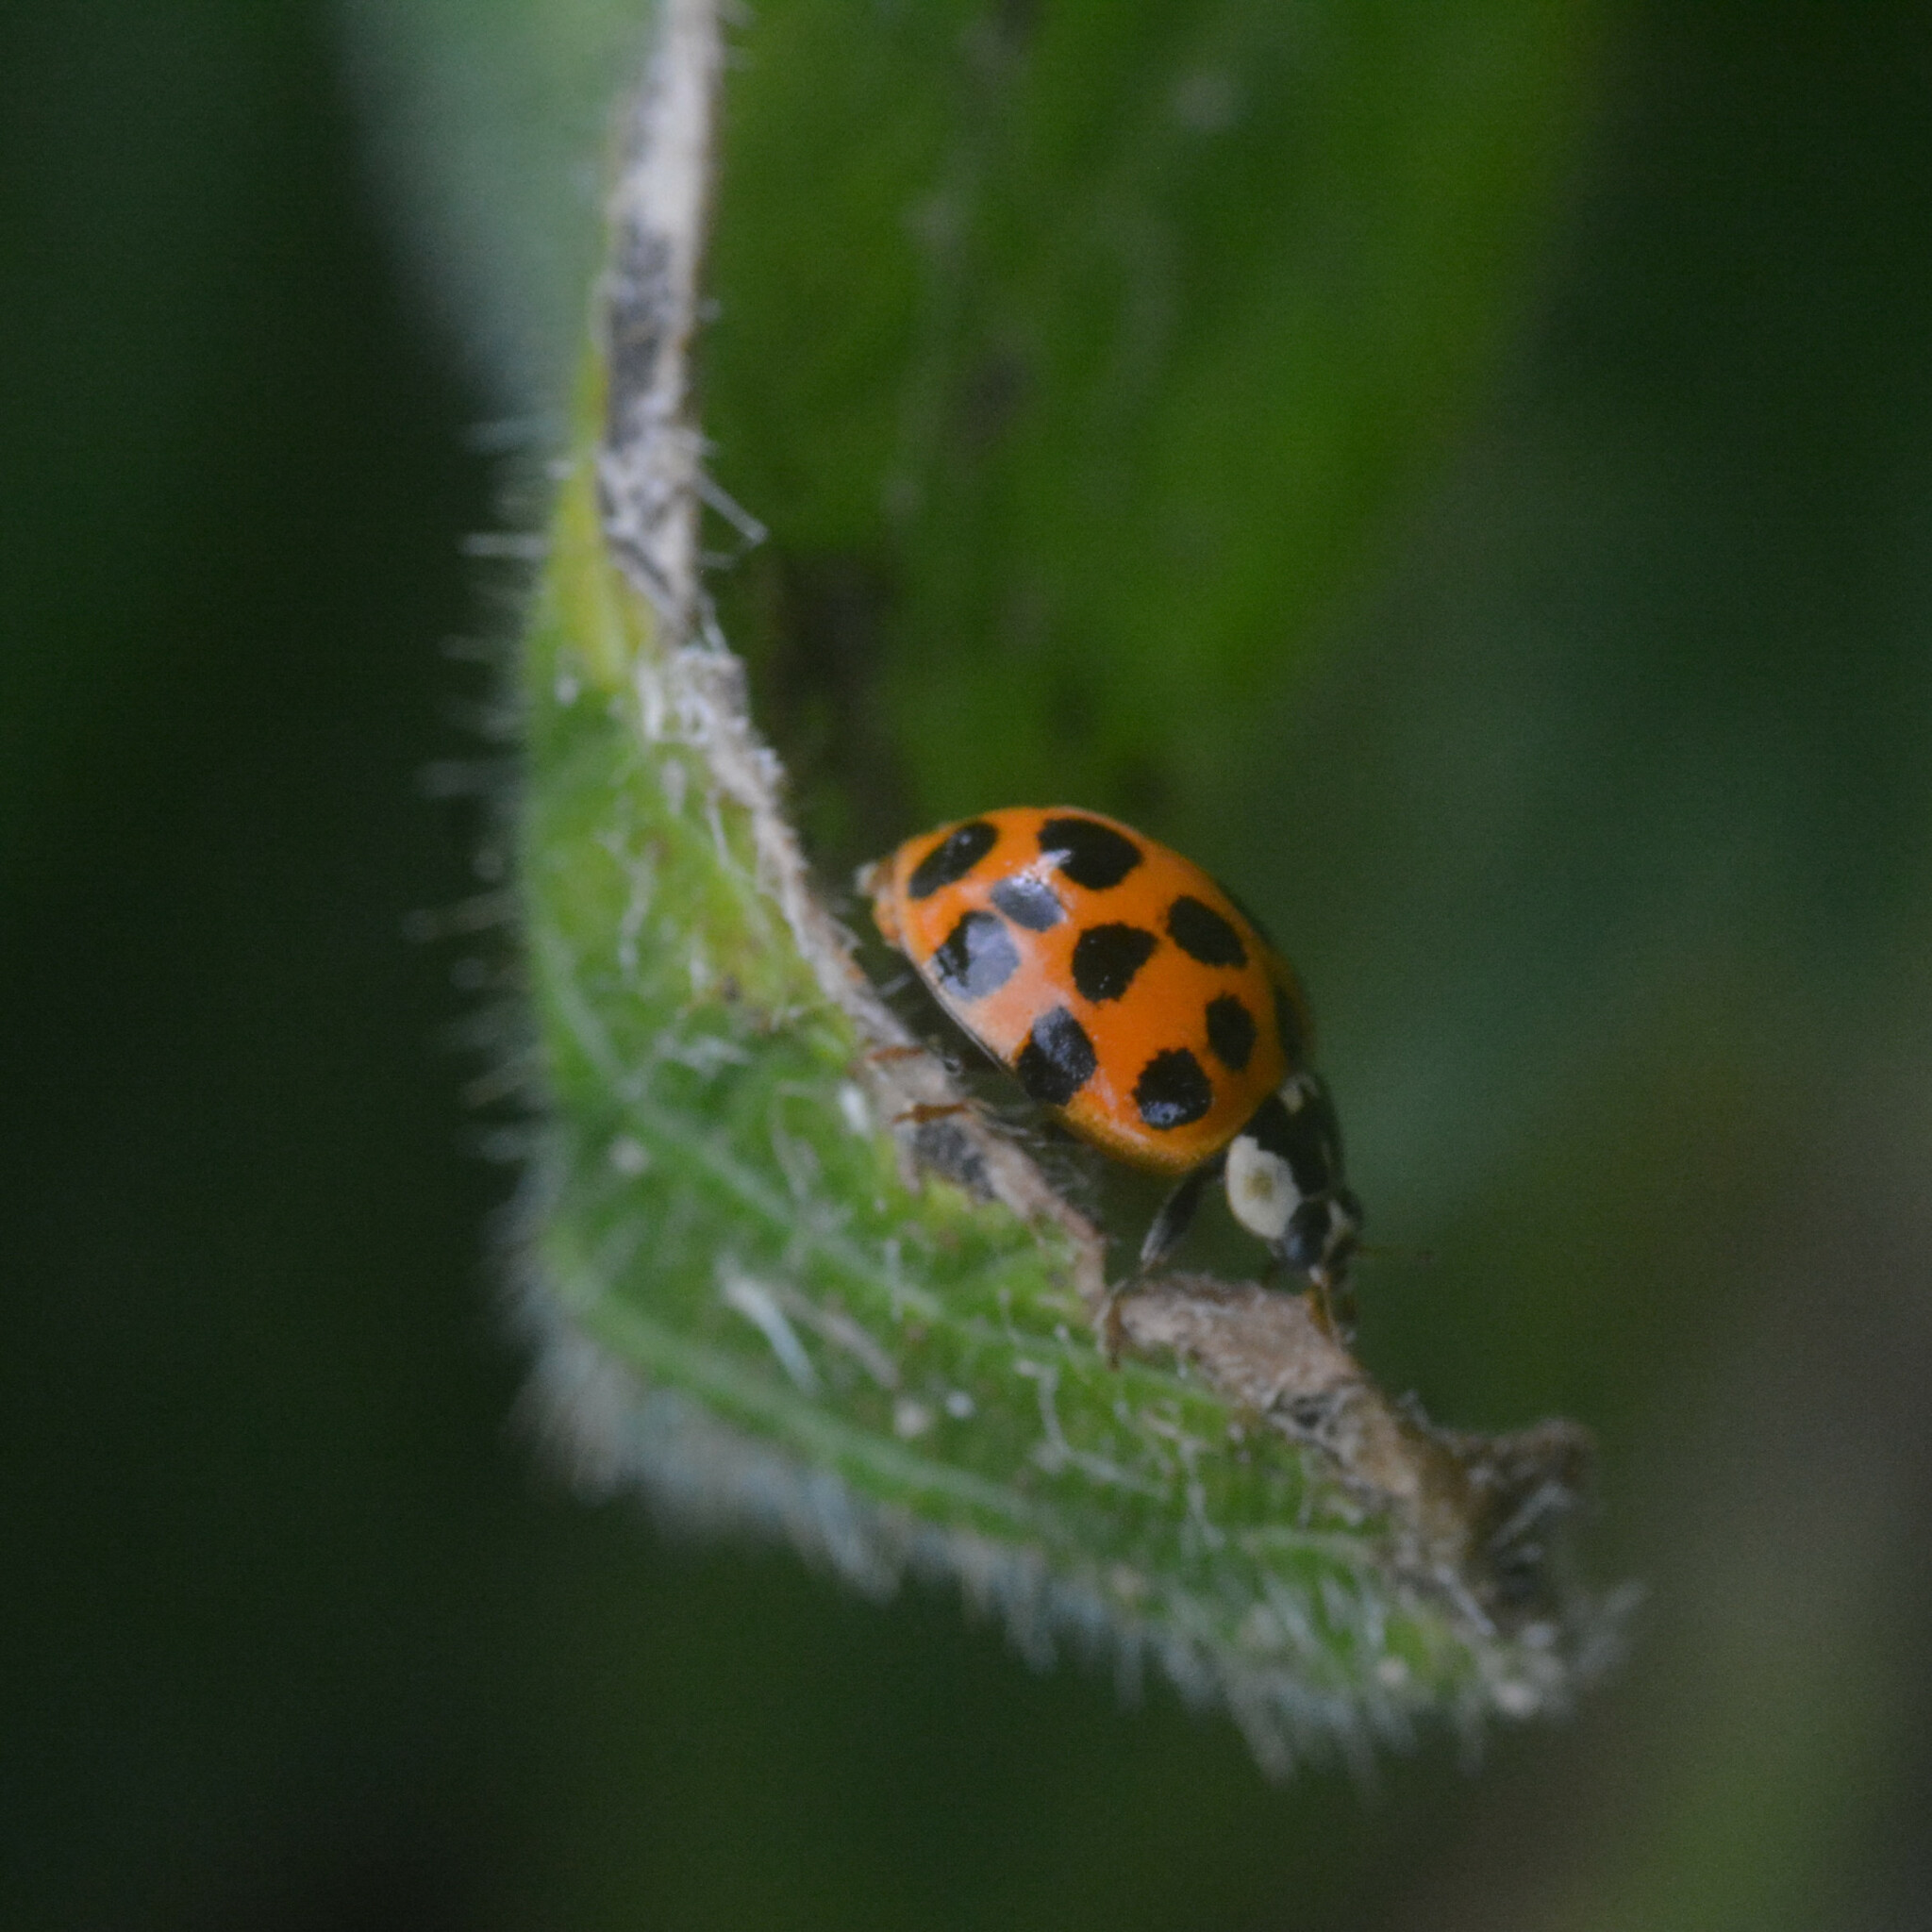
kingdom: Animalia
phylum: Arthropoda
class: Insecta
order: Coleoptera
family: Coccinellidae
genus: Harmonia
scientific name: Harmonia axyridis
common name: Harlequin ladybird
